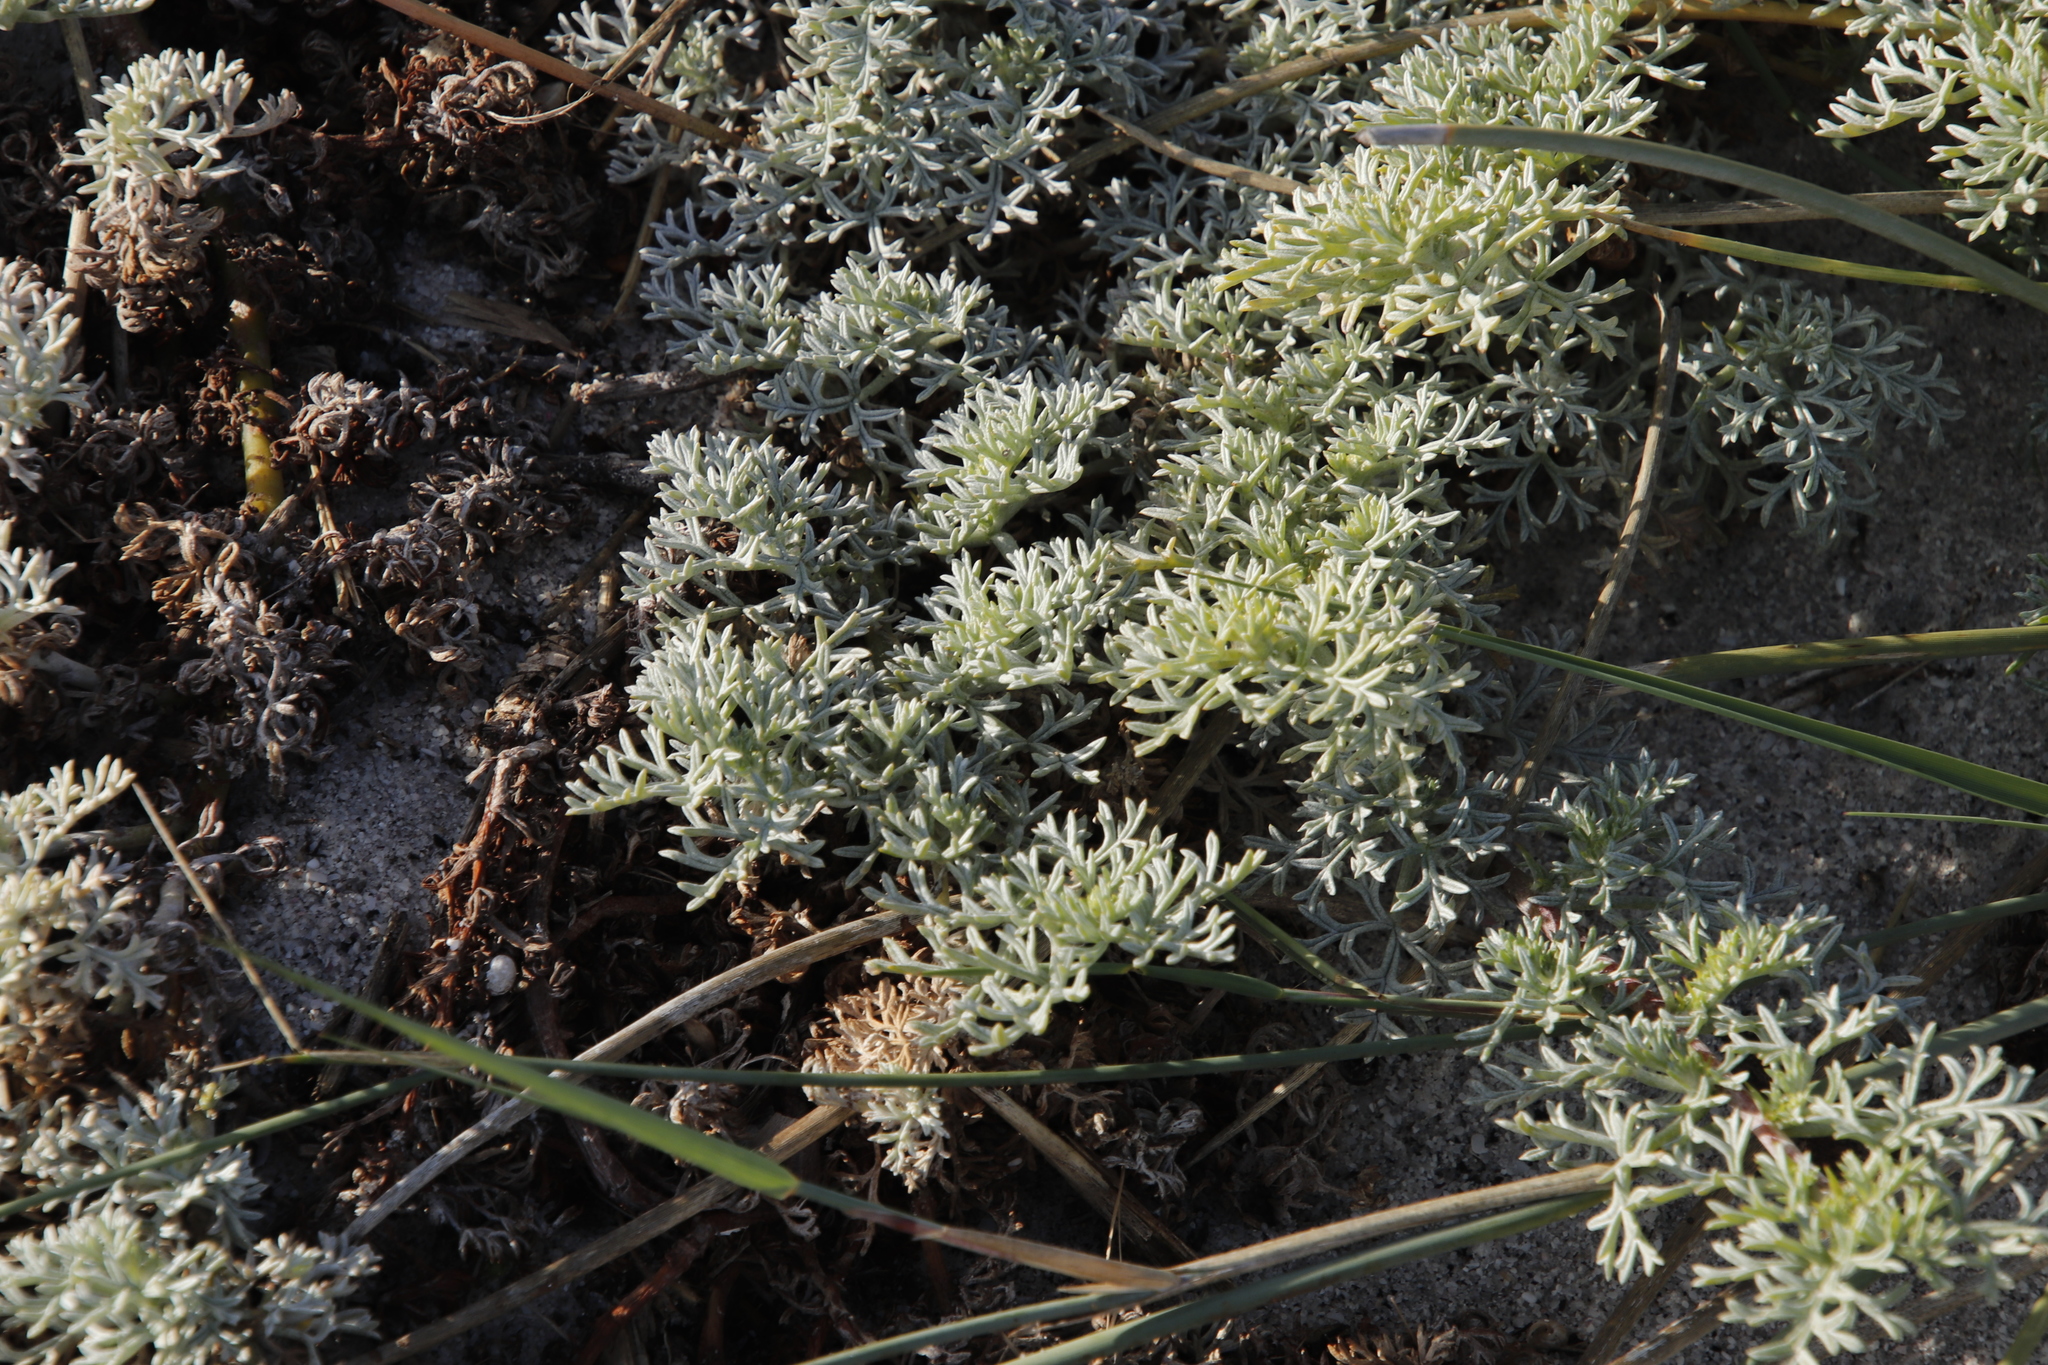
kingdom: Plantae
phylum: Tracheophyta
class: Magnoliopsida
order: Malvales
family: Neuradaceae
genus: Grielum
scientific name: Grielum grandiflorum
